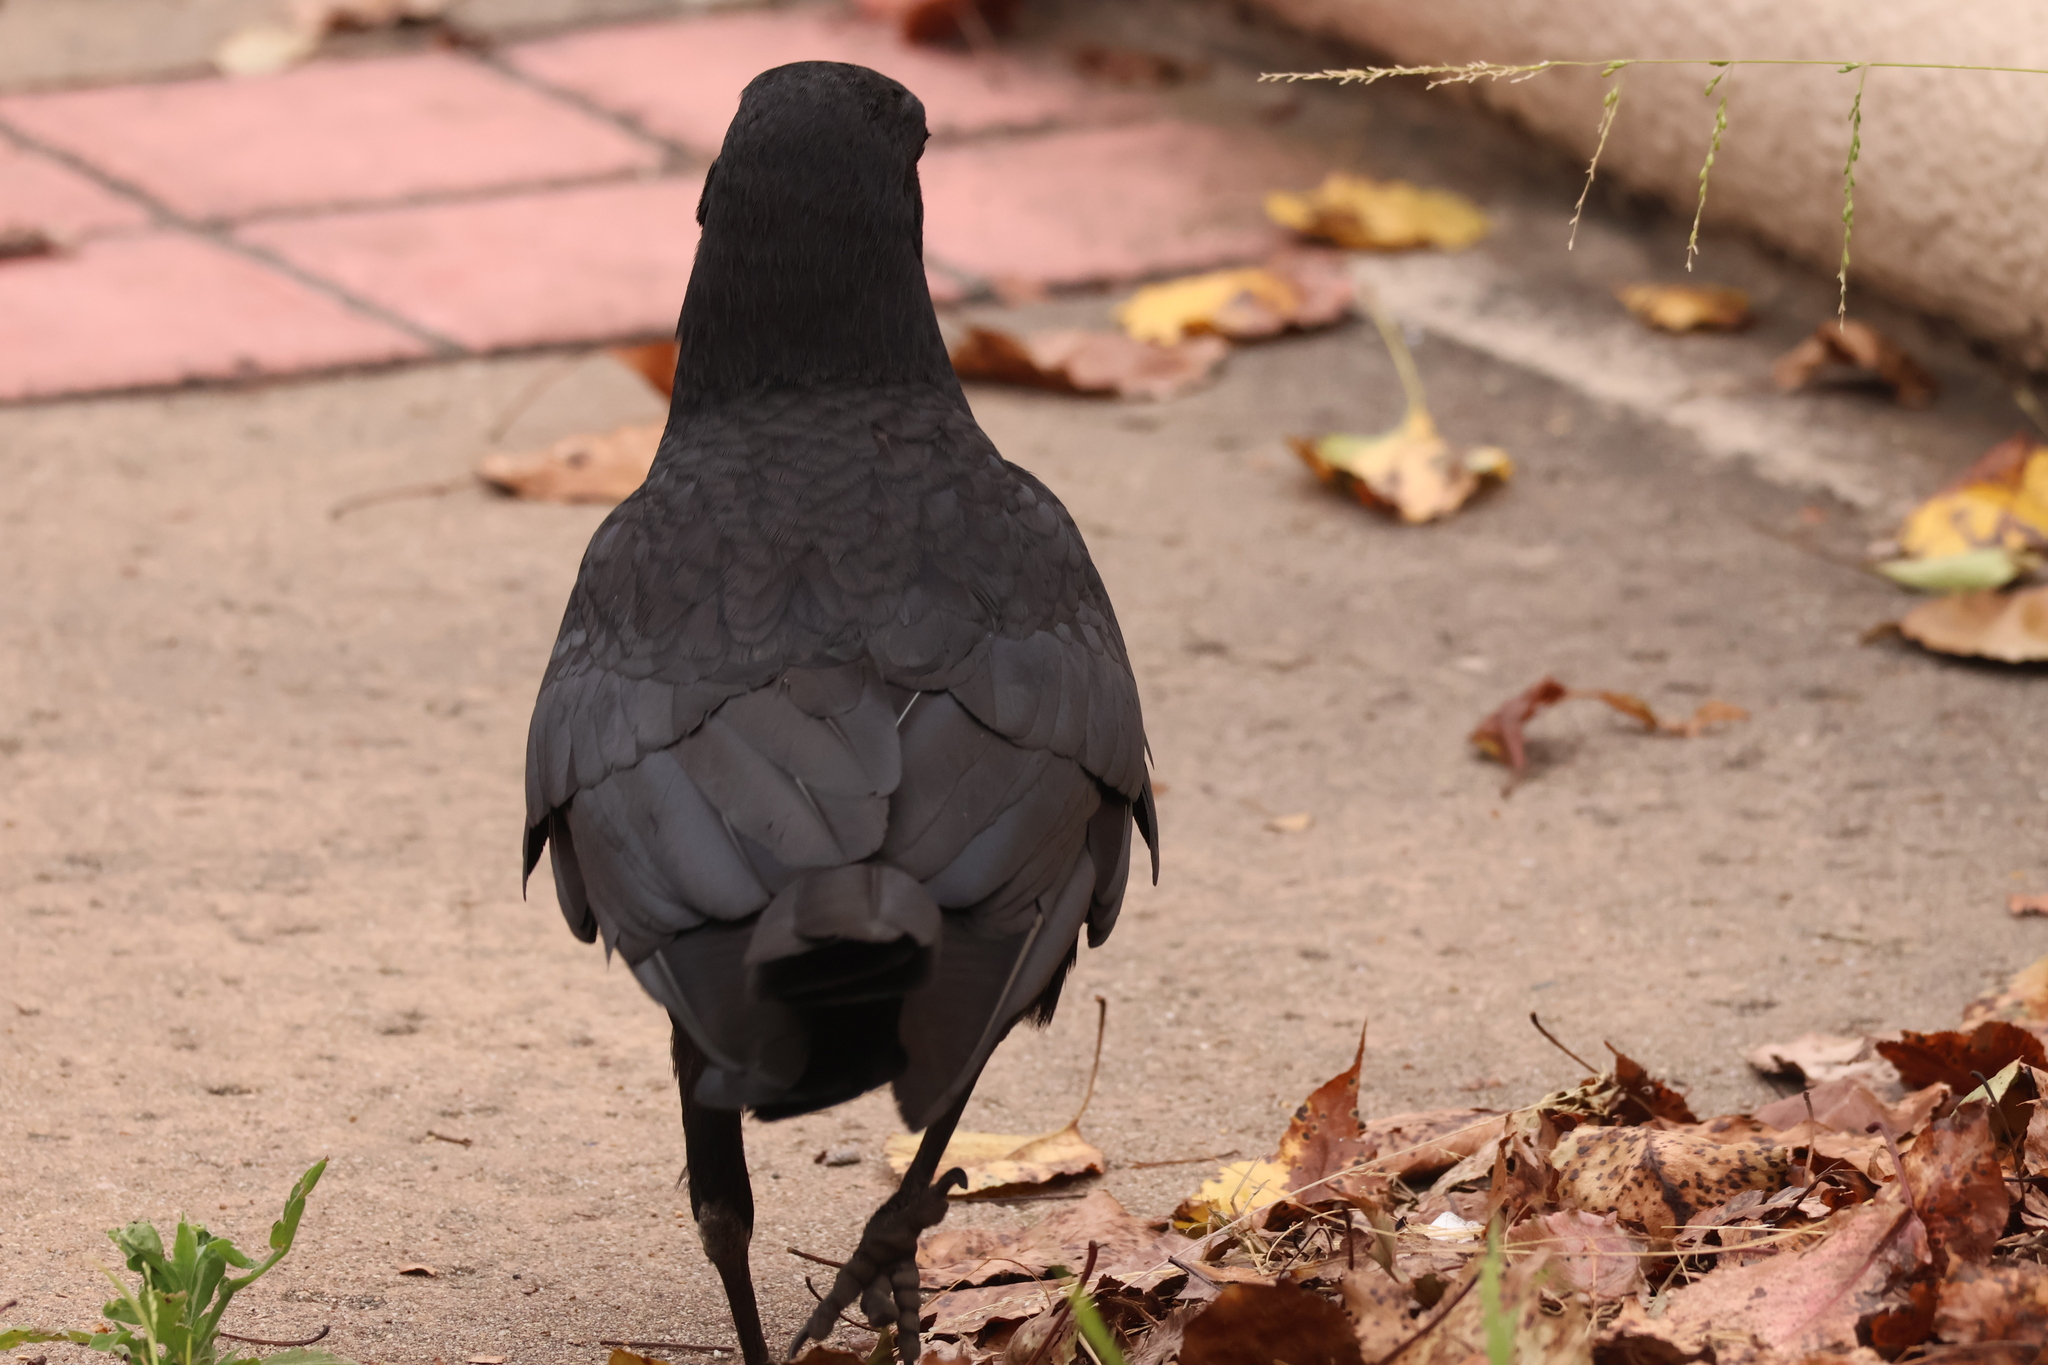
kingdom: Animalia
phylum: Chordata
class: Aves
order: Passeriformes
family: Corvidae
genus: Corvus
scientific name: Corvus brachyrhynchos
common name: American crow
